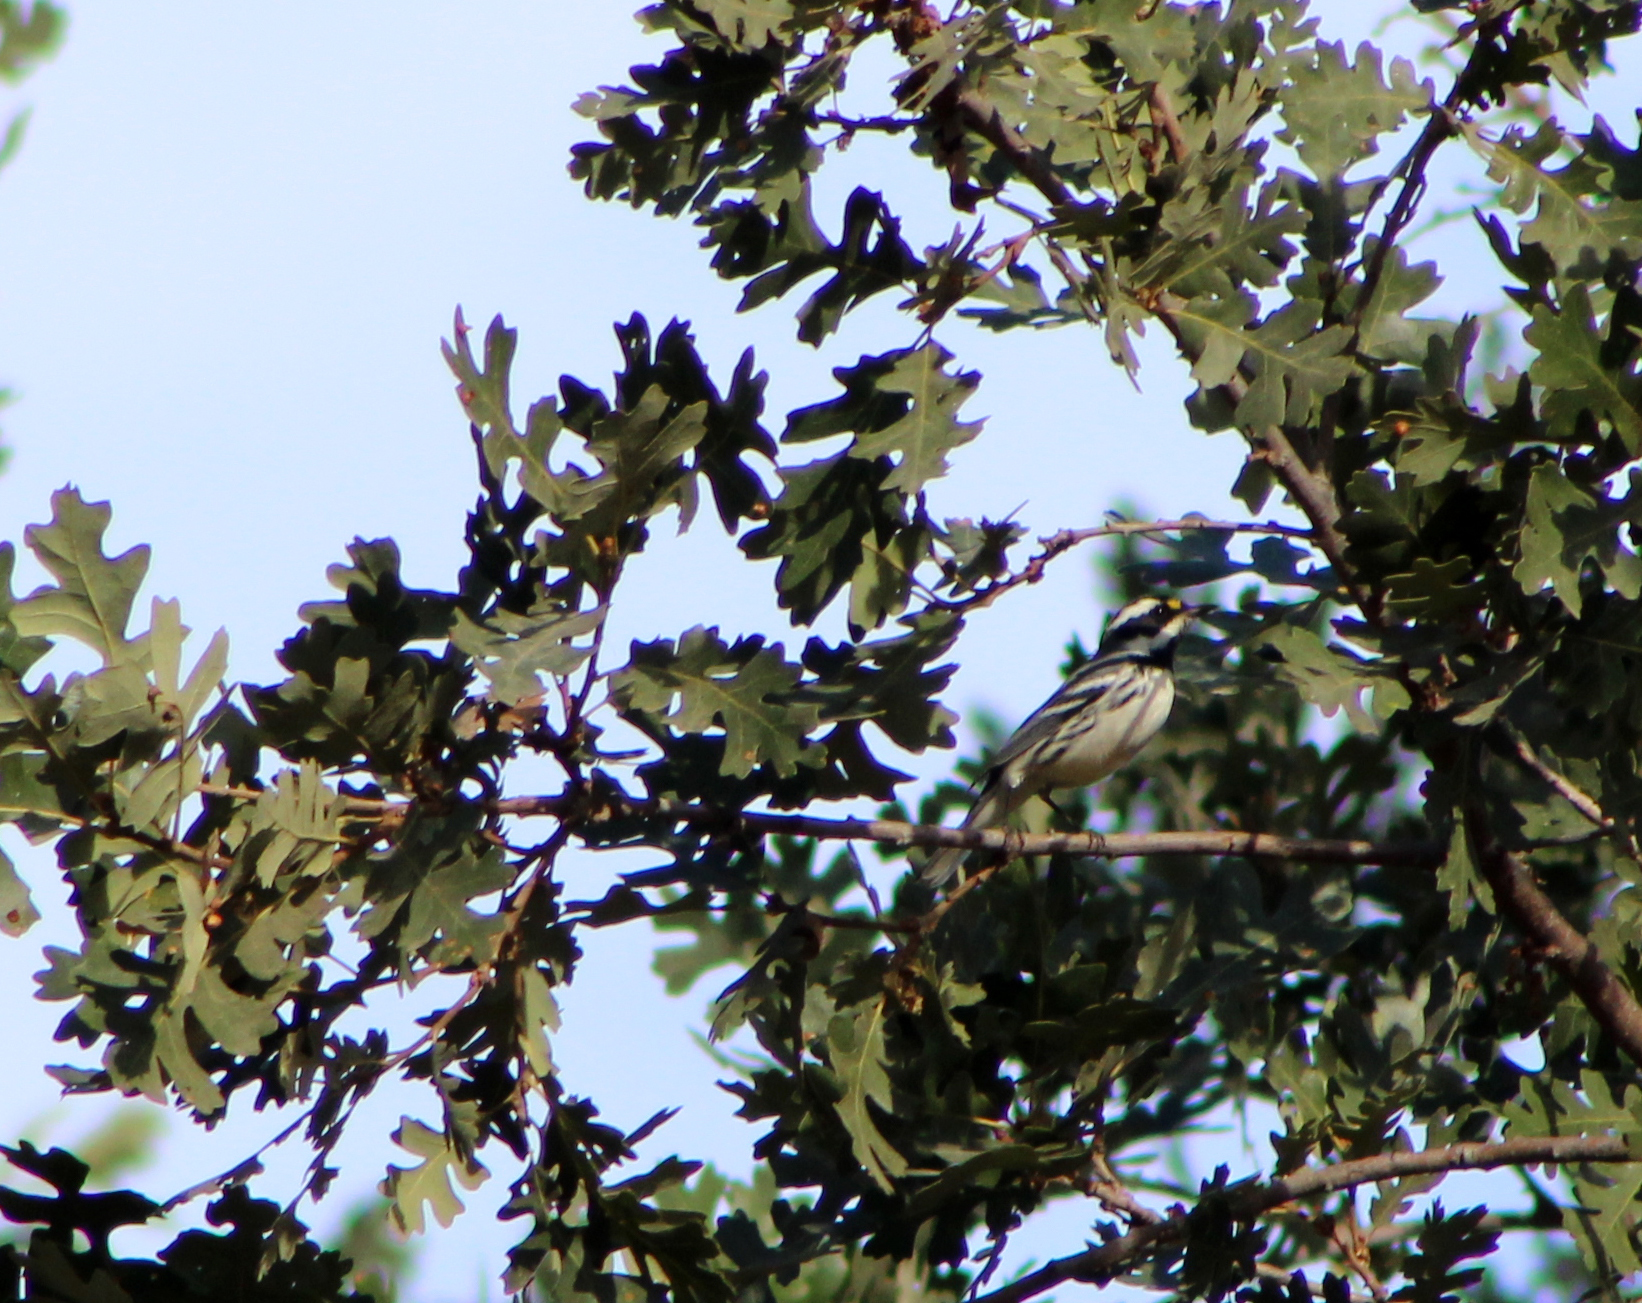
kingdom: Animalia
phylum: Chordata
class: Aves
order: Passeriformes
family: Parulidae
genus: Setophaga
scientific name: Setophaga nigrescens
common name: Black-throated gray warbler
